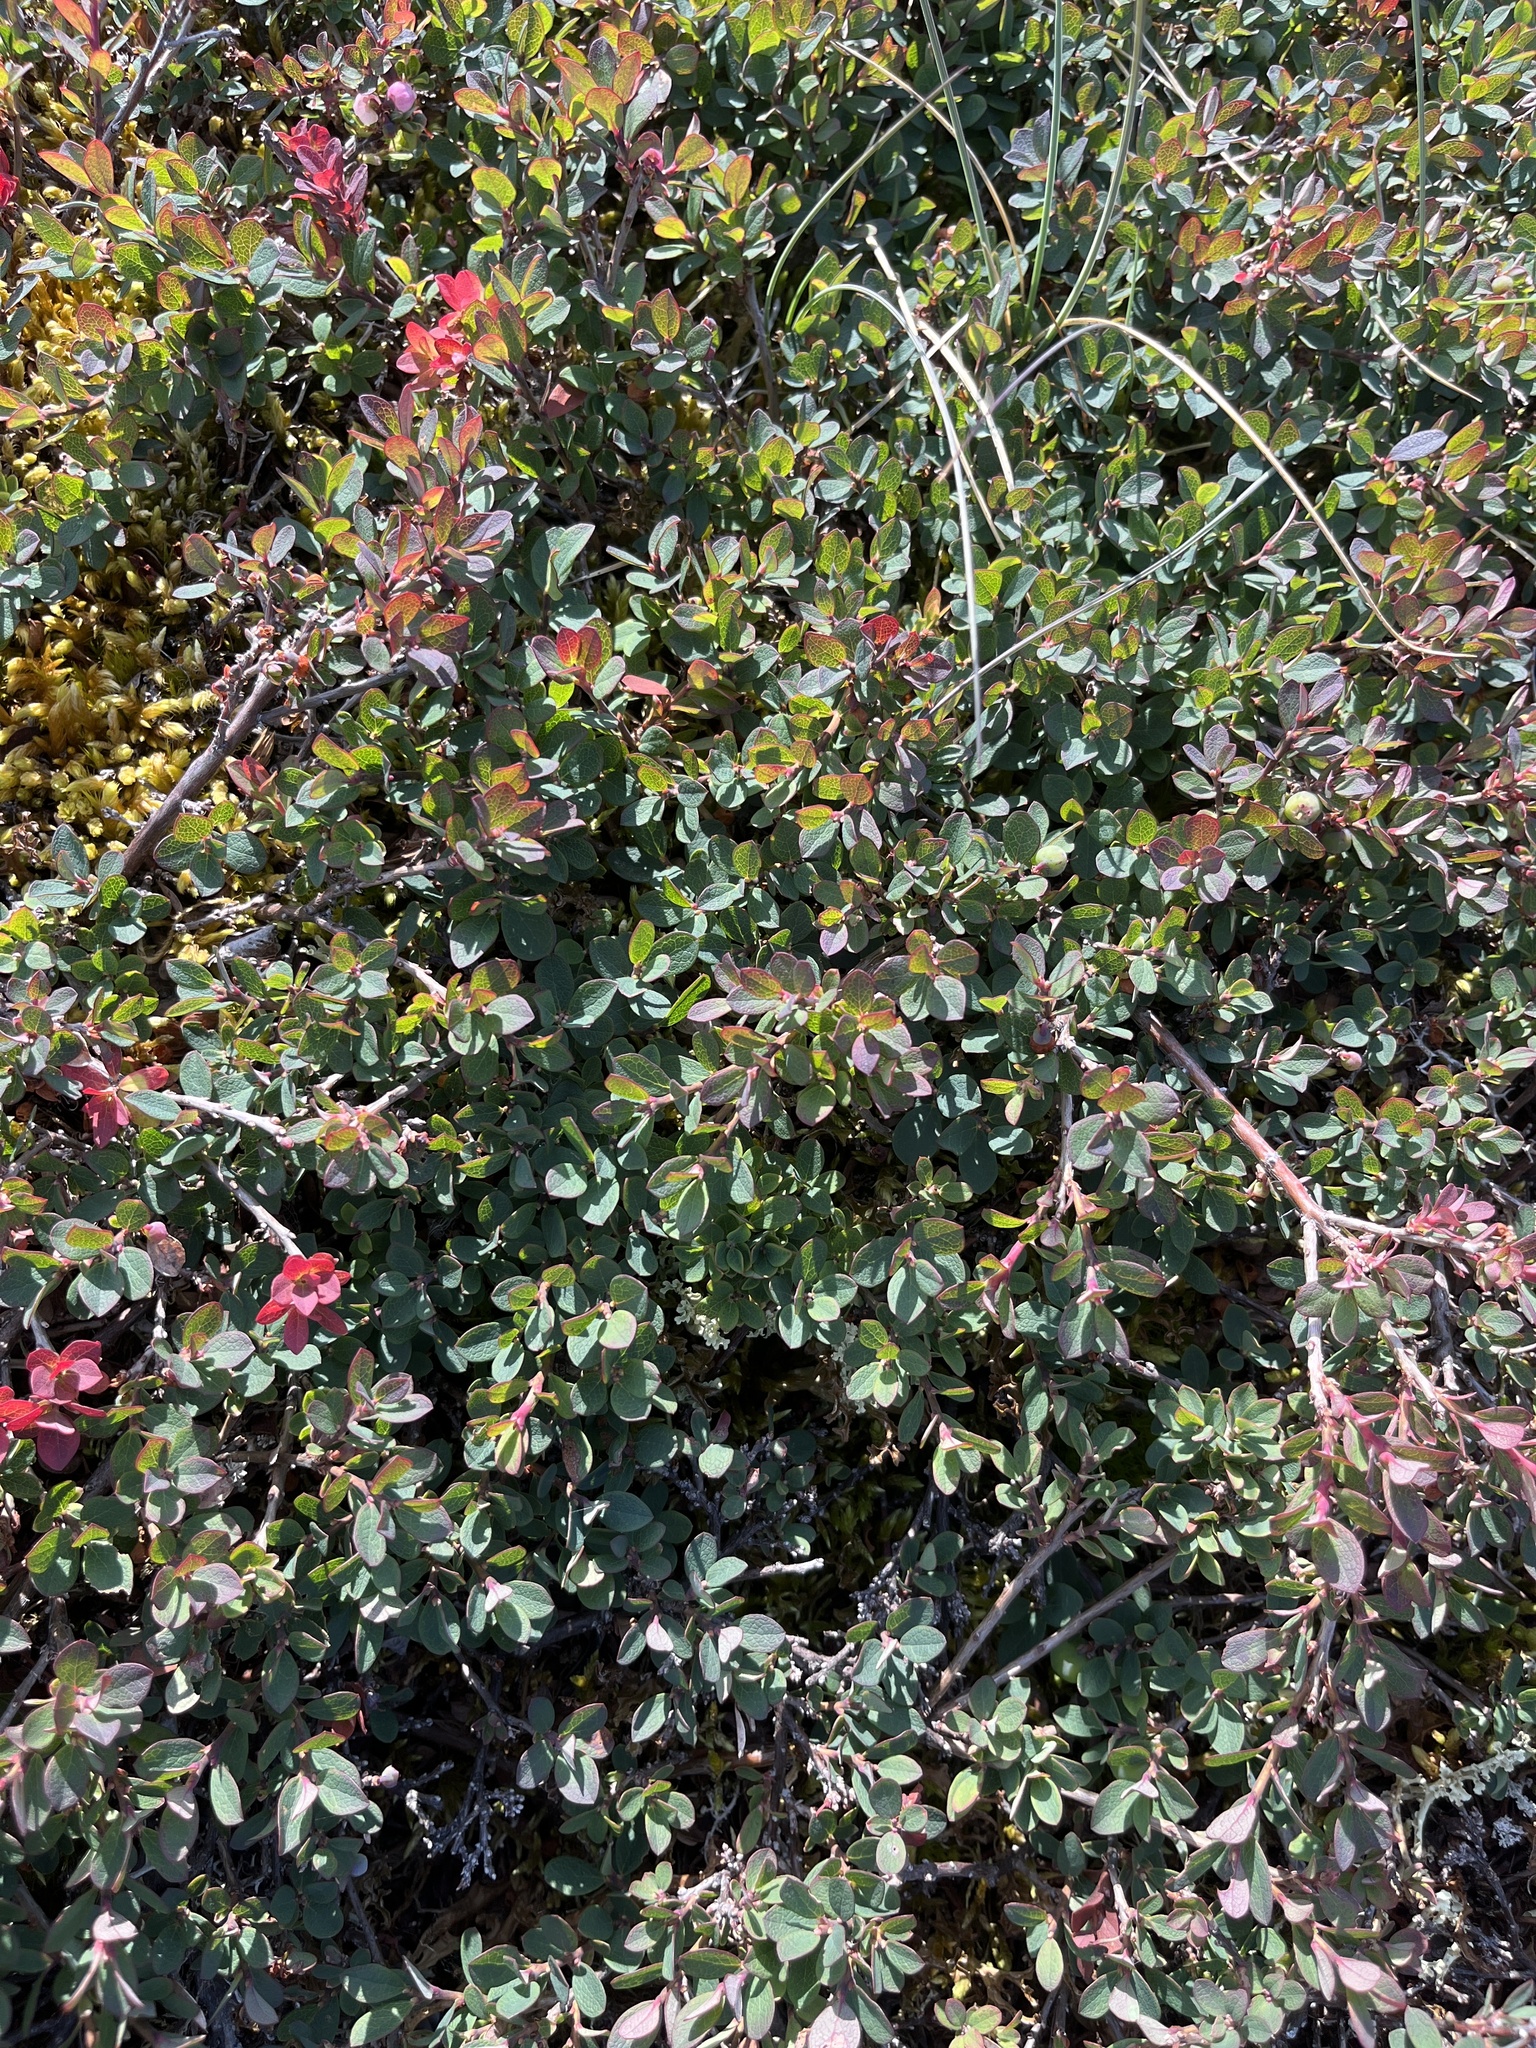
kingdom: Plantae
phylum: Tracheophyta
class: Magnoliopsida
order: Ericales
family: Ericaceae
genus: Vaccinium
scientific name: Vaccinium uliginosum
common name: Bog bilberry
